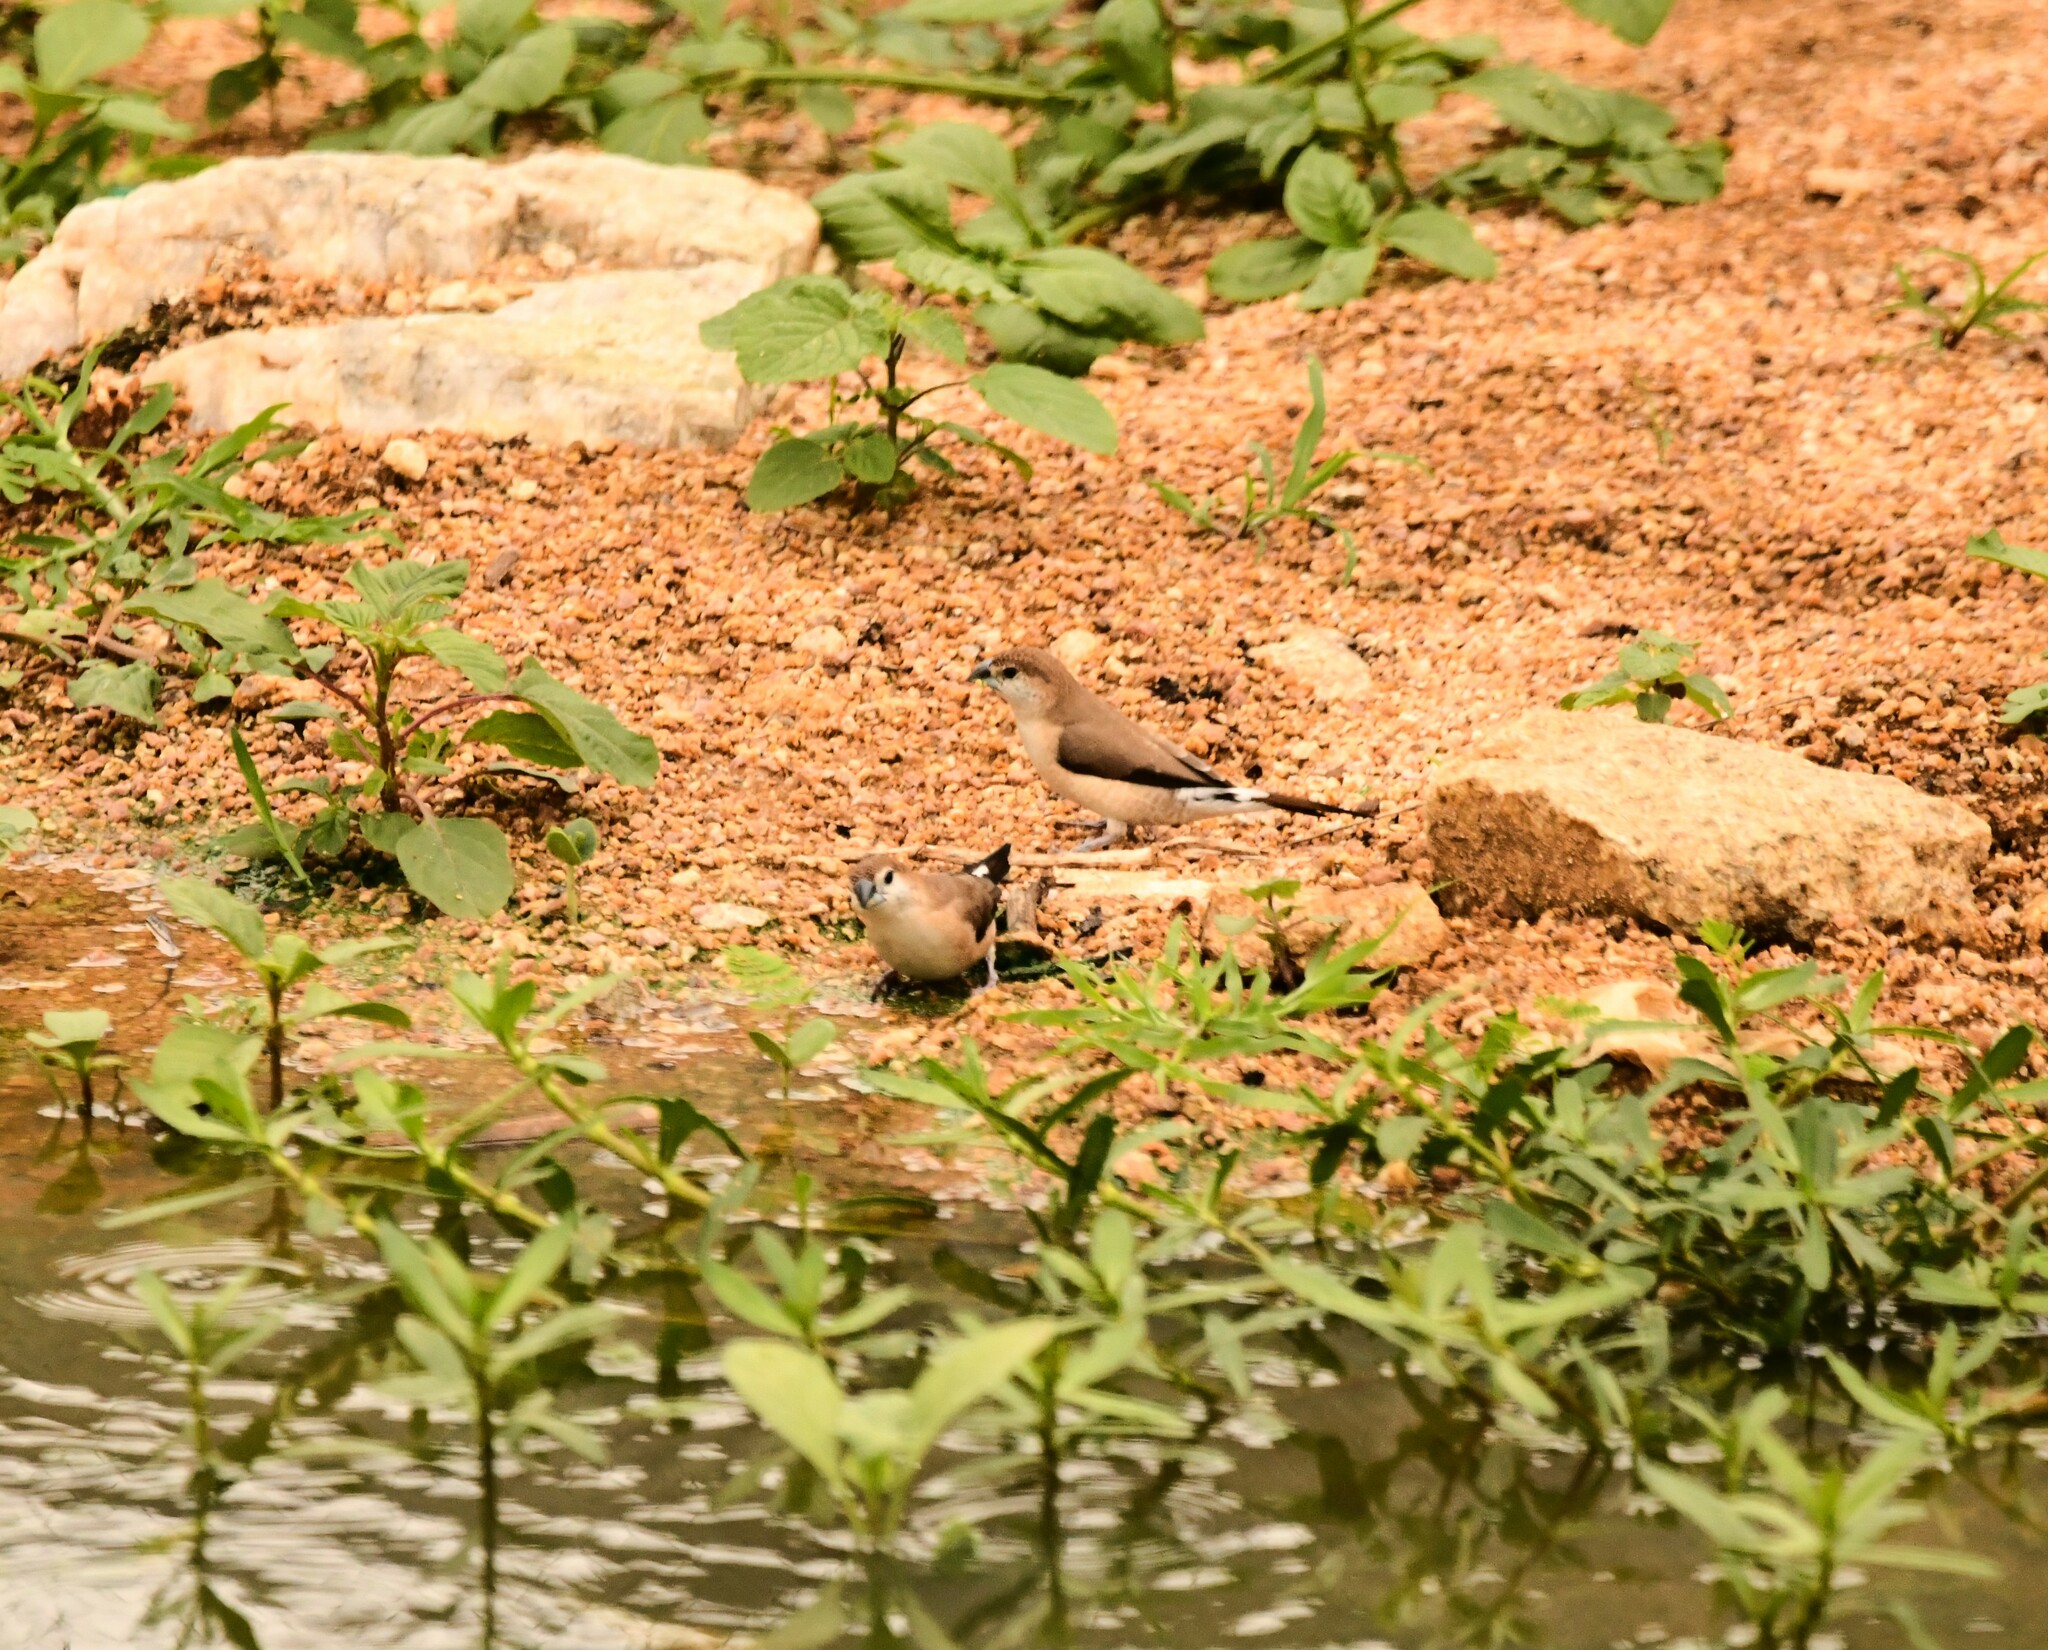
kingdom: Animalia
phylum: Chordata
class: Aves
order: Passeriformes
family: Estrildidae
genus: Euodice
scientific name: Euodice malabarica
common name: Indian silverbill
